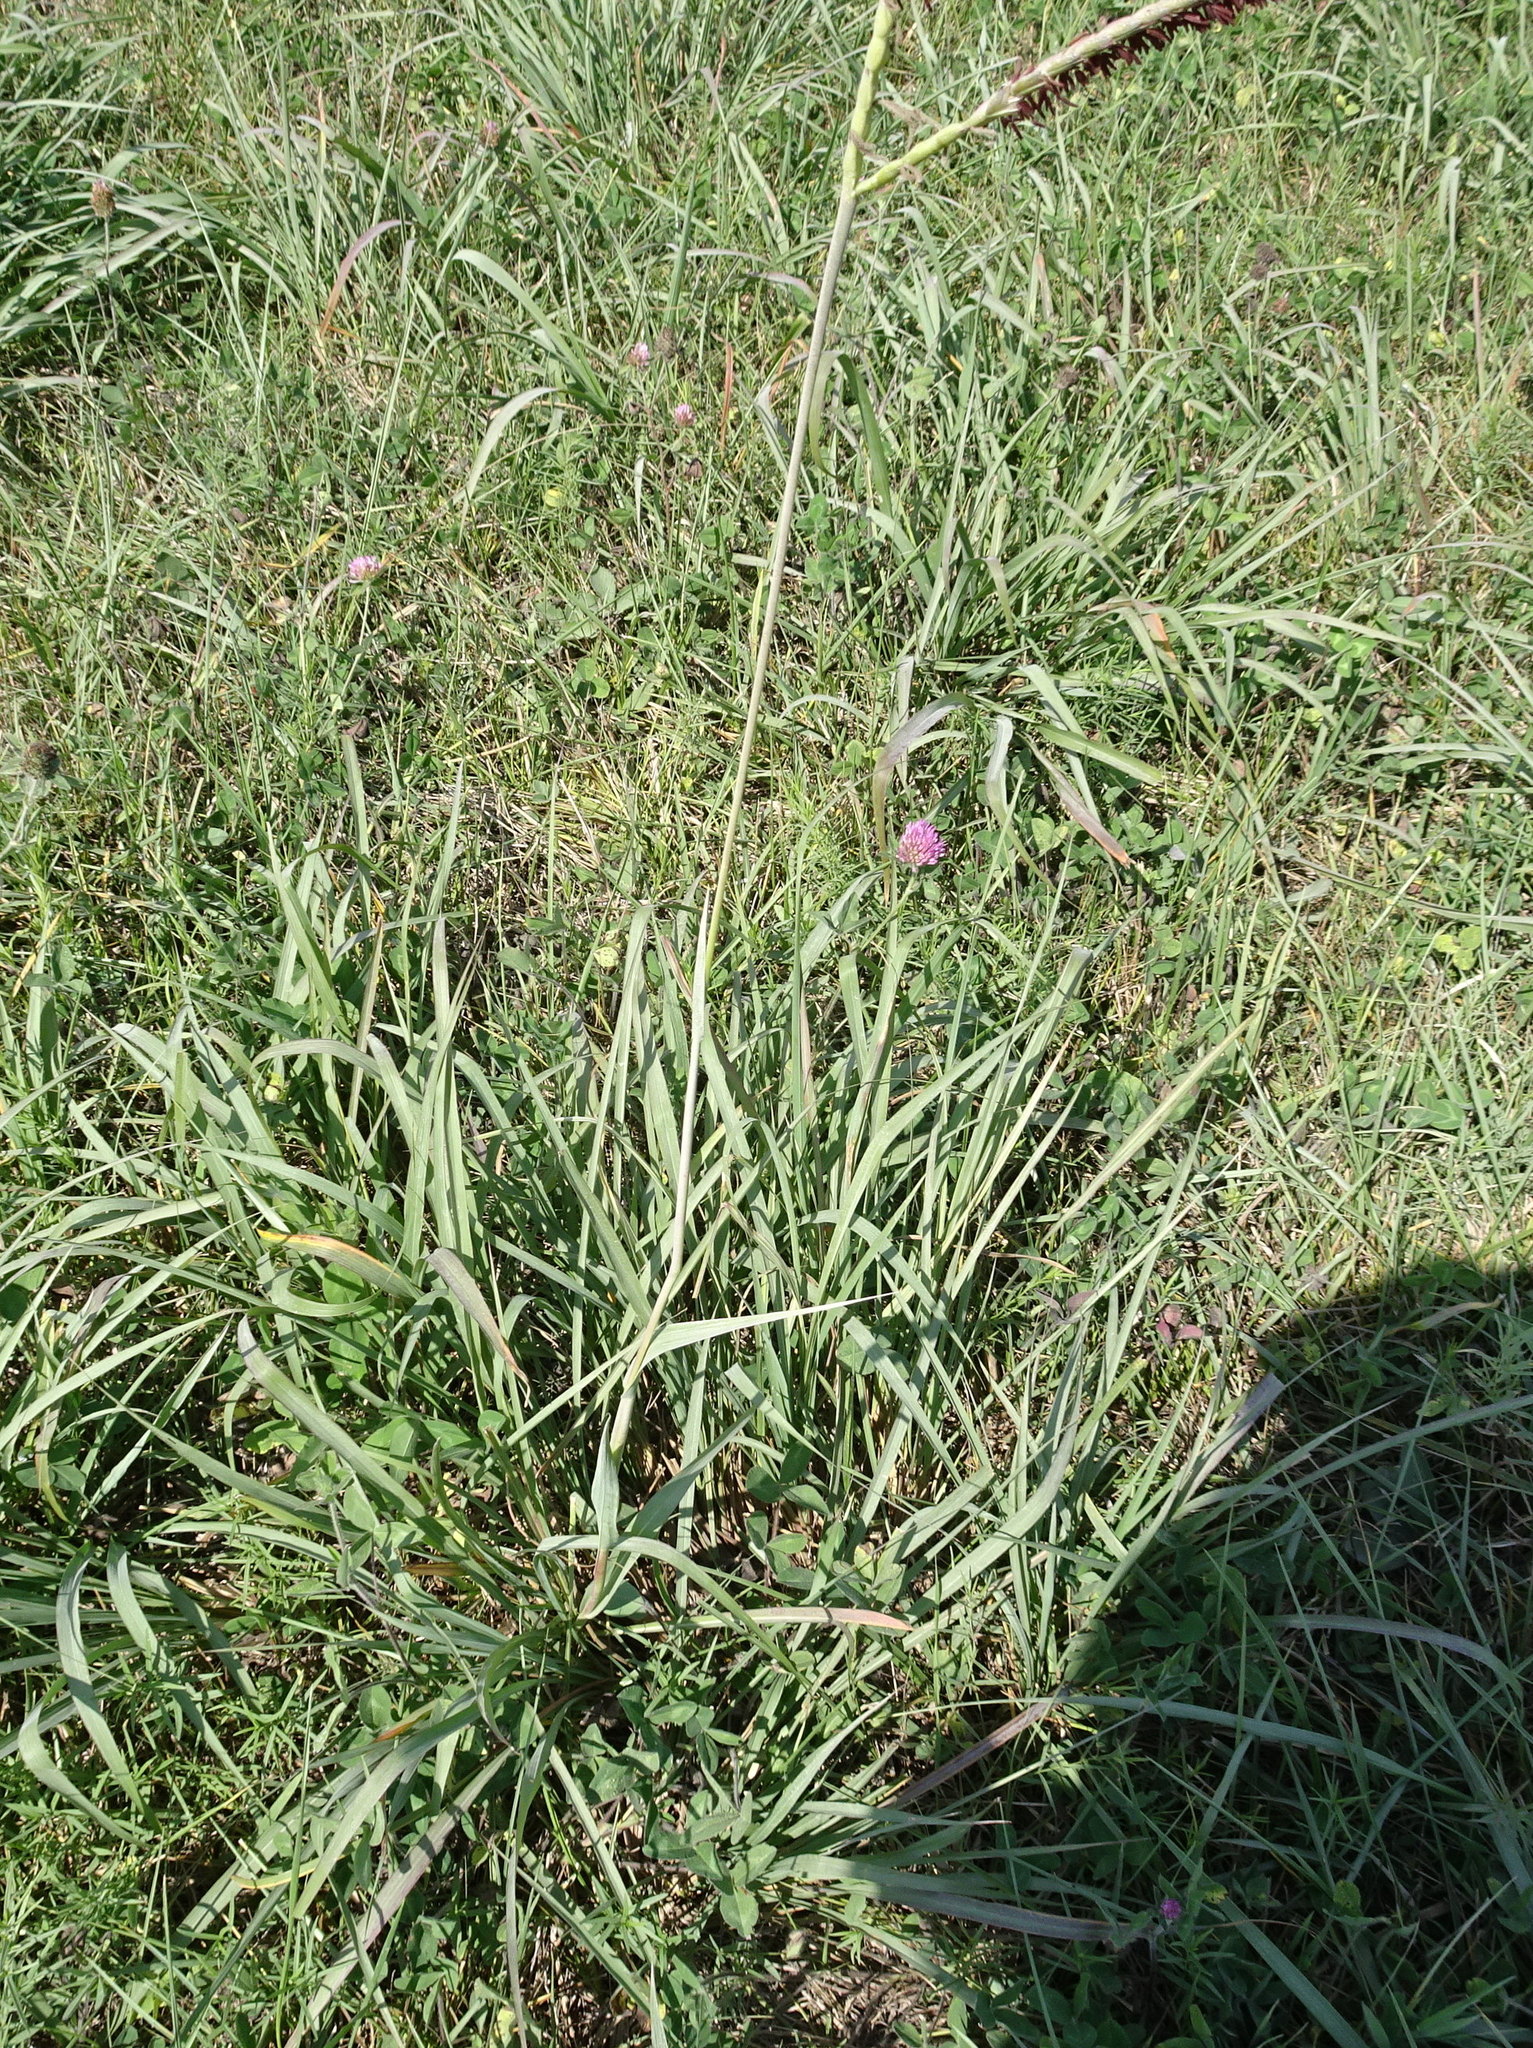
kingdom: Plantae
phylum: Tracheophyta
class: Liliopsida
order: Poales
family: Poaceae
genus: Tripsacum
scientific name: Tripsacum dactyloides
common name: Buffalo-grass
